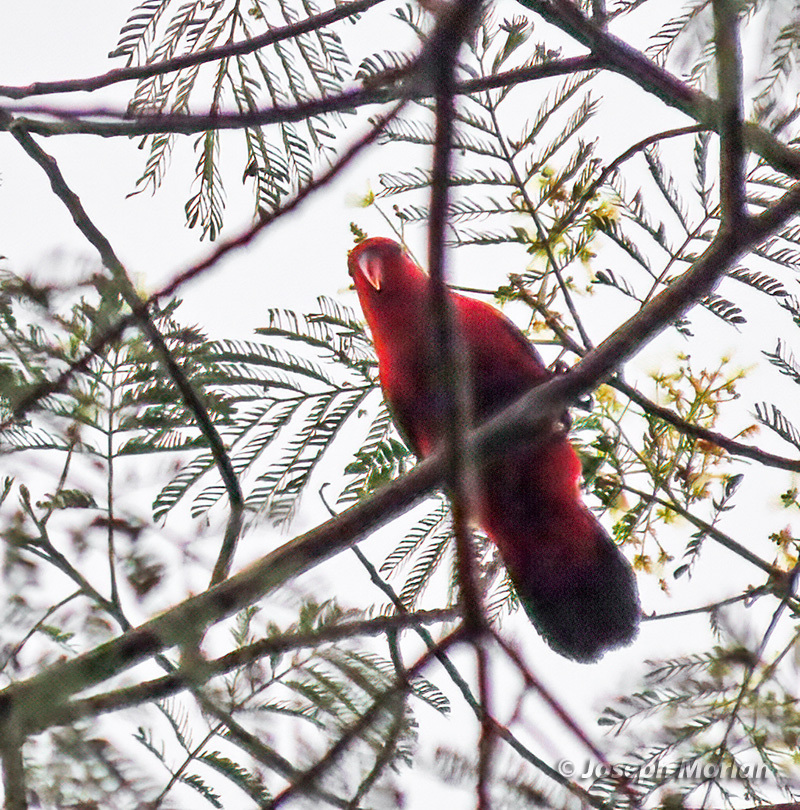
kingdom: Animalia
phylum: Chordata
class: Aves
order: Psittaciformes
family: Psittacidae
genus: Lorius
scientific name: Lorius garrulus
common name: Chattering lory
